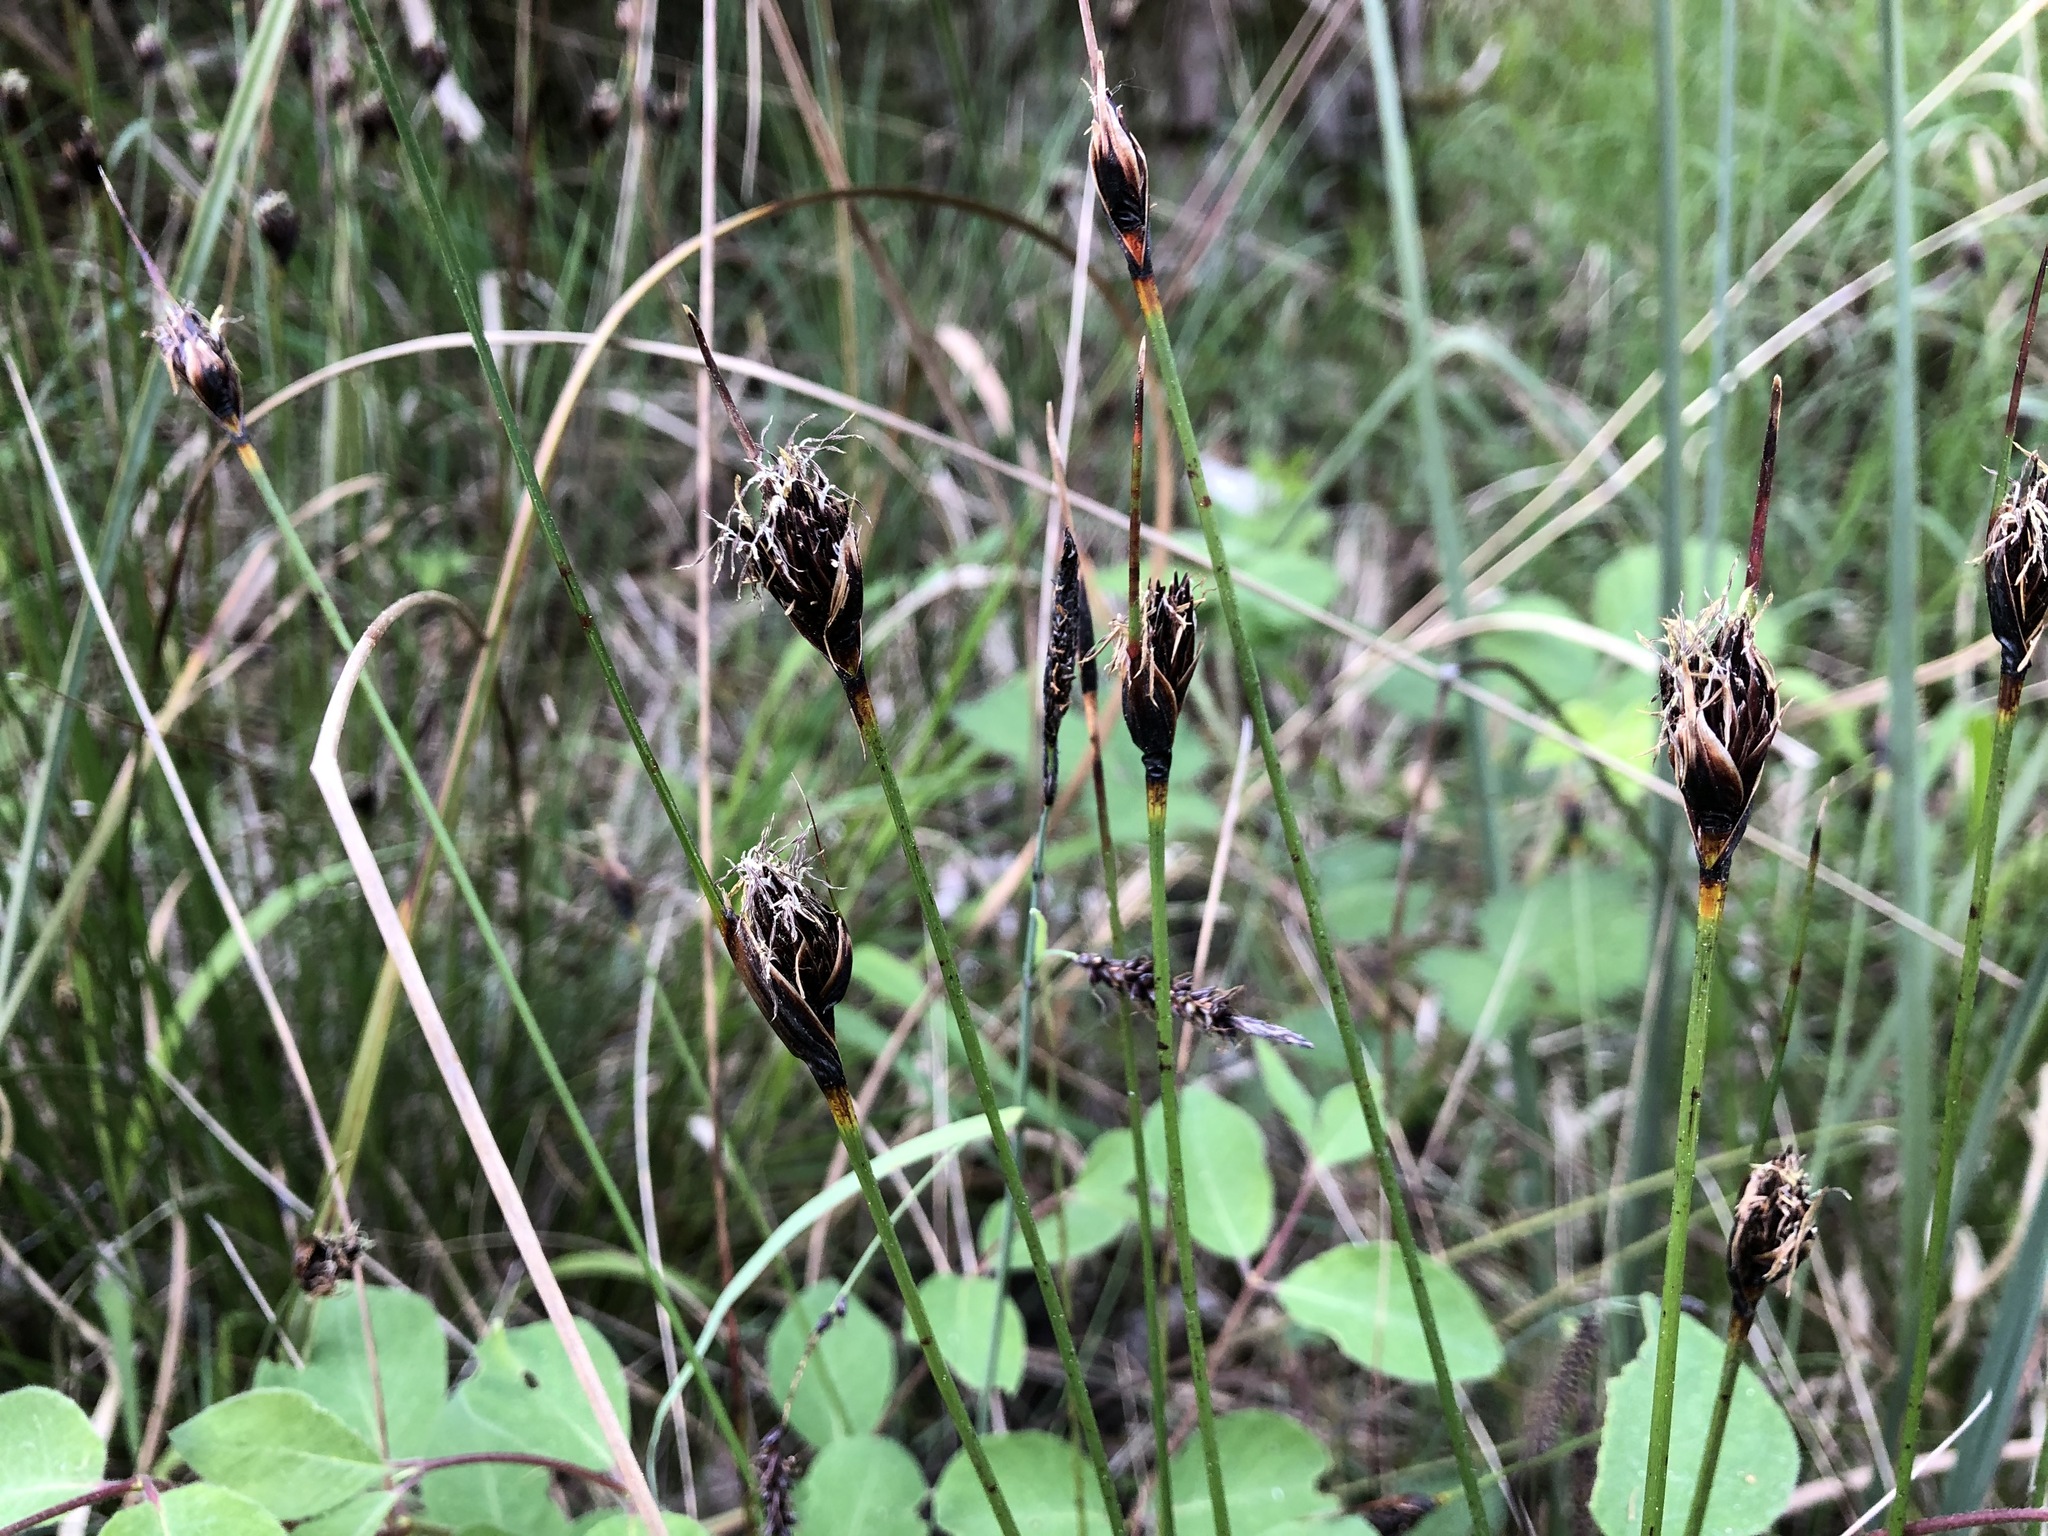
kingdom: Plantae
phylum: Tracheophyta
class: Liliopsida
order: Poales
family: Cyperaceae
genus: Schoenus
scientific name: Schoenus nigricans
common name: Black bog-rush
